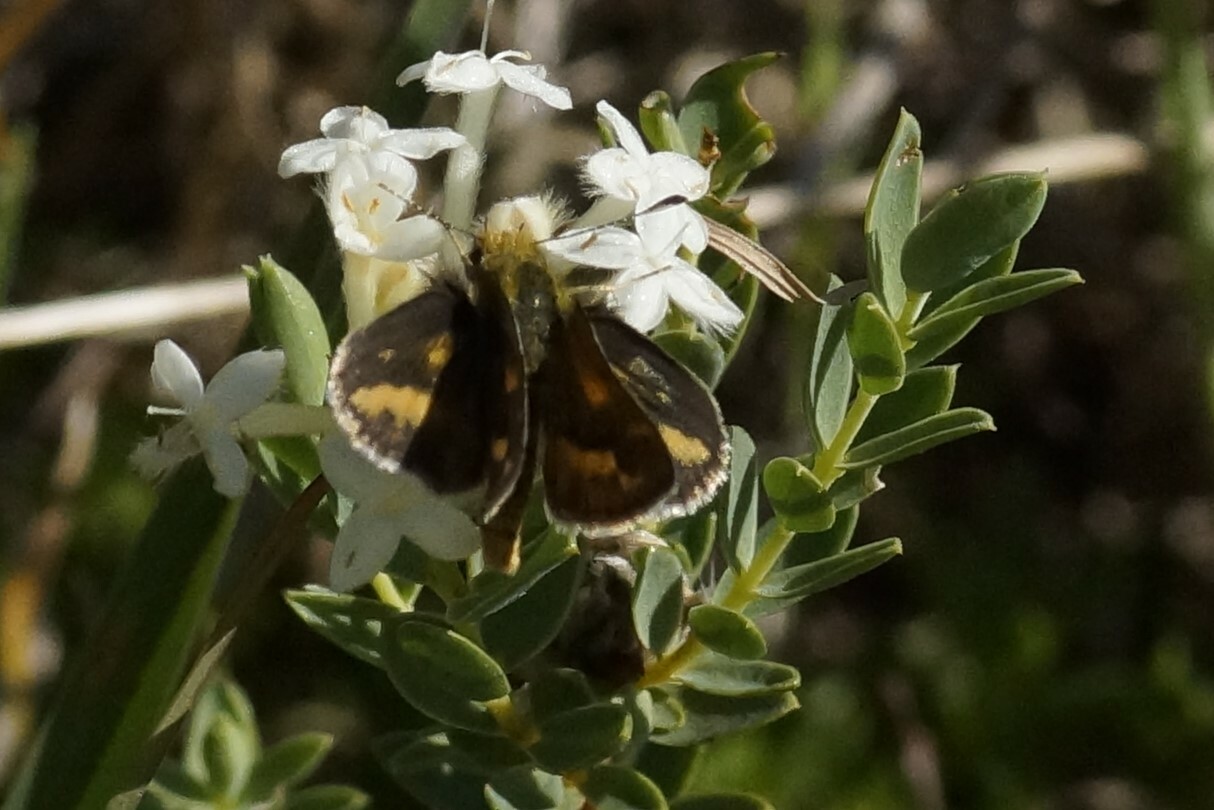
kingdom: Animalia
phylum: Arthropoda
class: Insecta
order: Lepidoptera
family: Hesperiidae
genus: Taractrocera
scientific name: Taractrocera papyria
